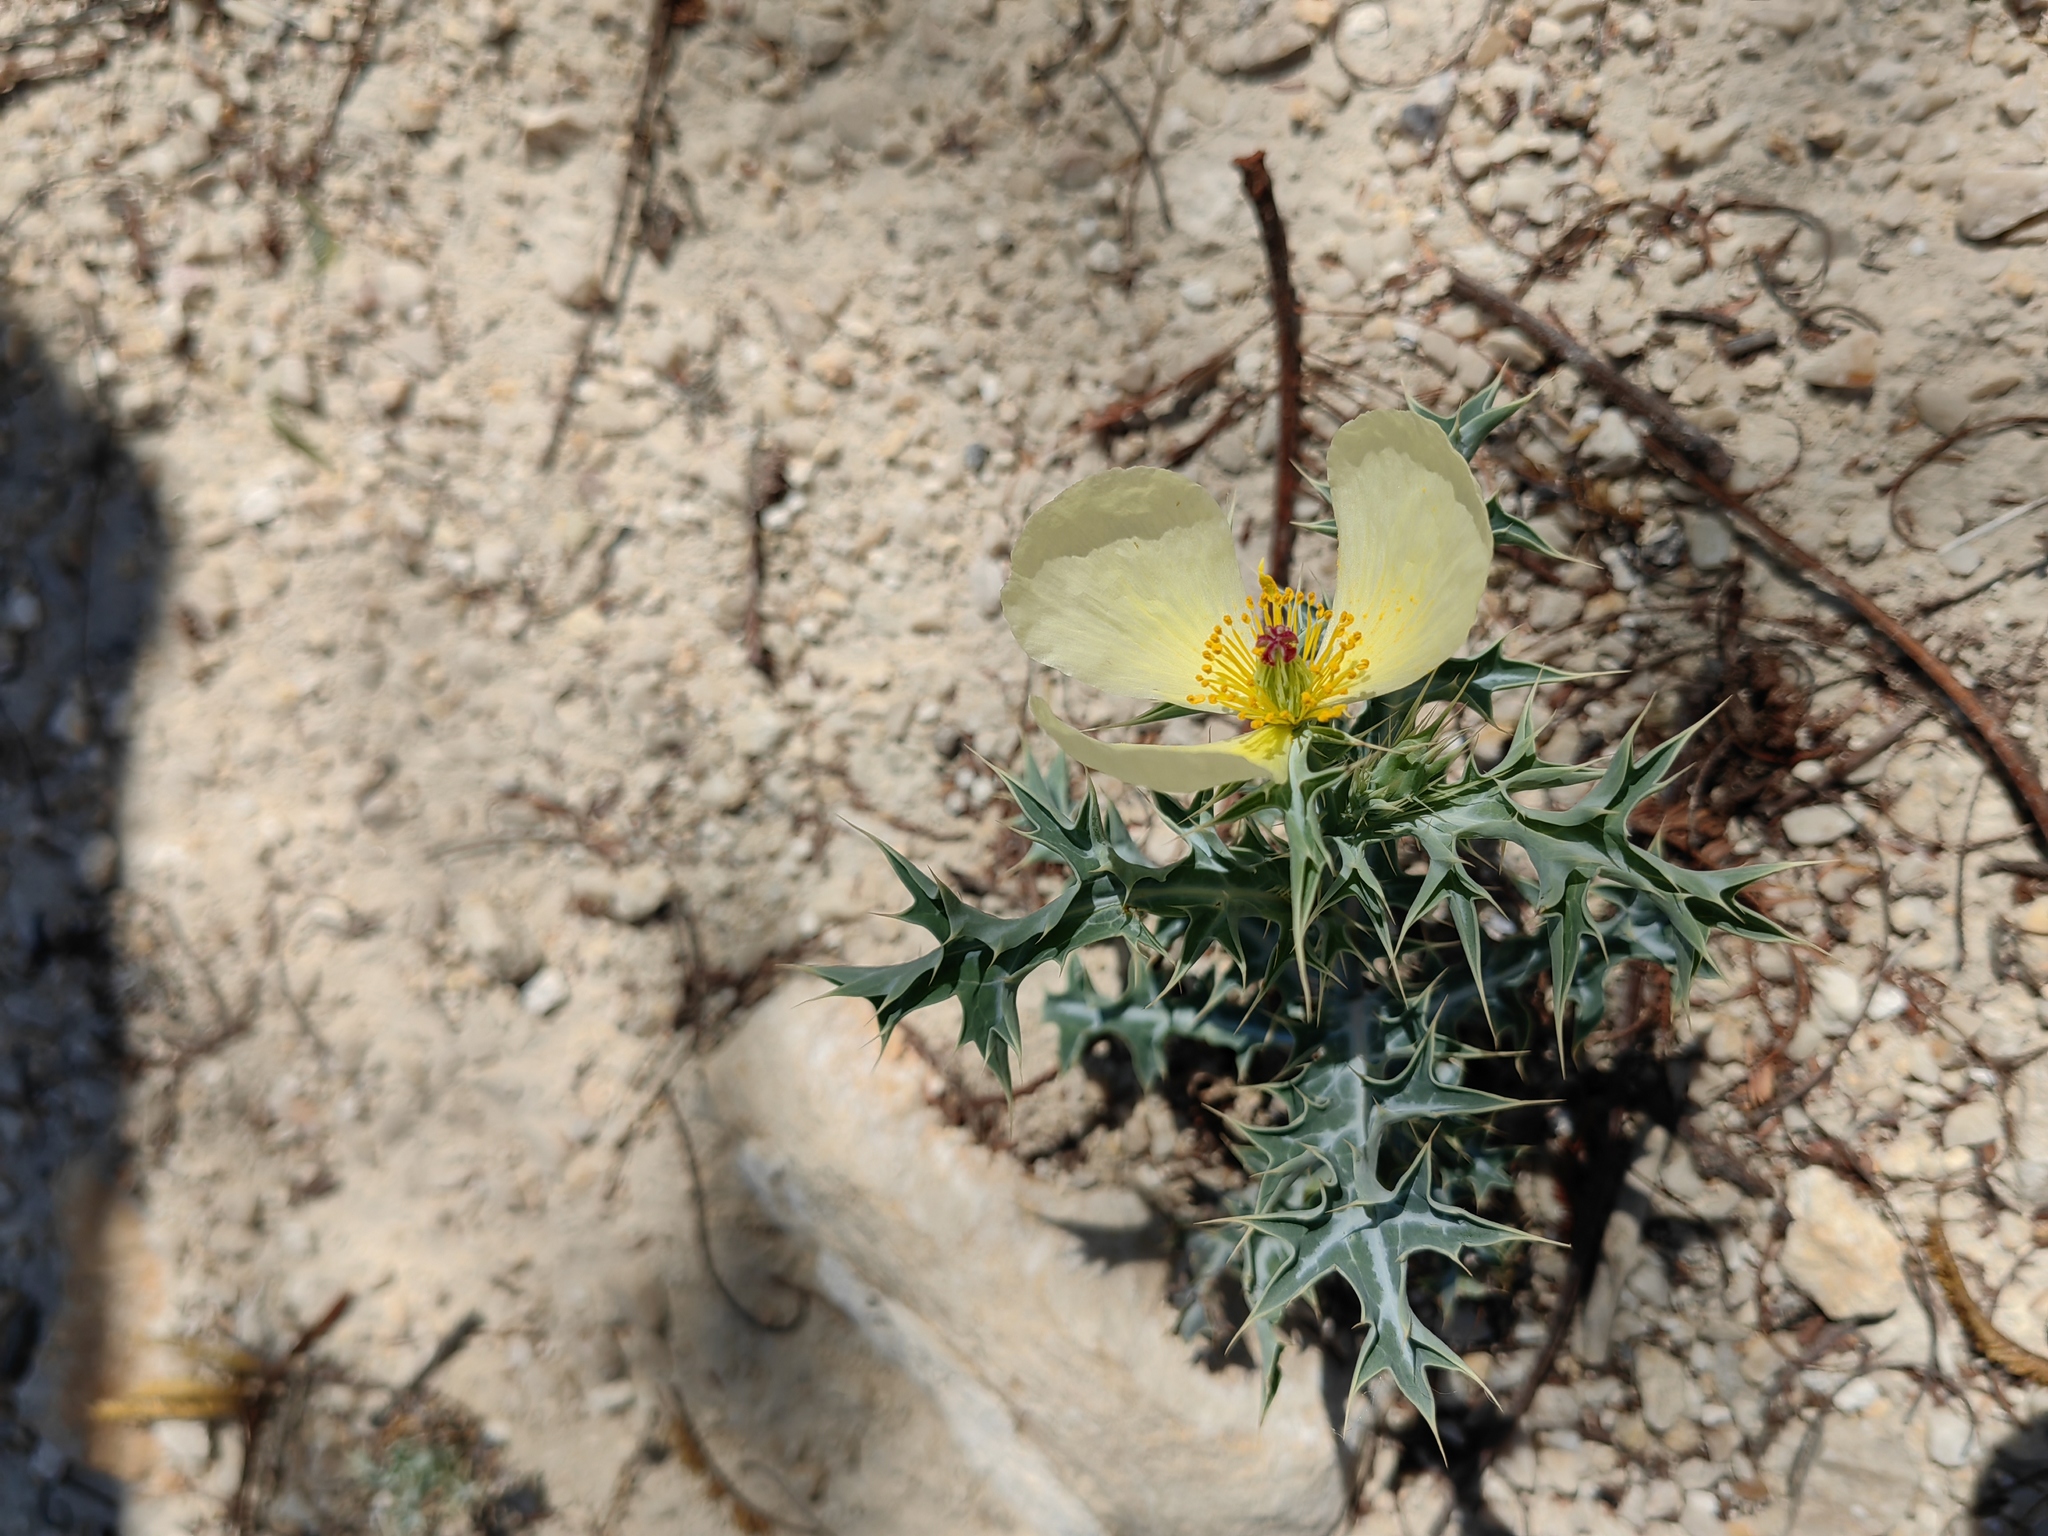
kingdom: Plantae
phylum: Tracheophyta
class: Magnoliopsida
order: Ranunculales
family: Papaveraceae
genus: Argemone
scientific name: Argemone ochroleuca
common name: White-flower mexican-poppy
